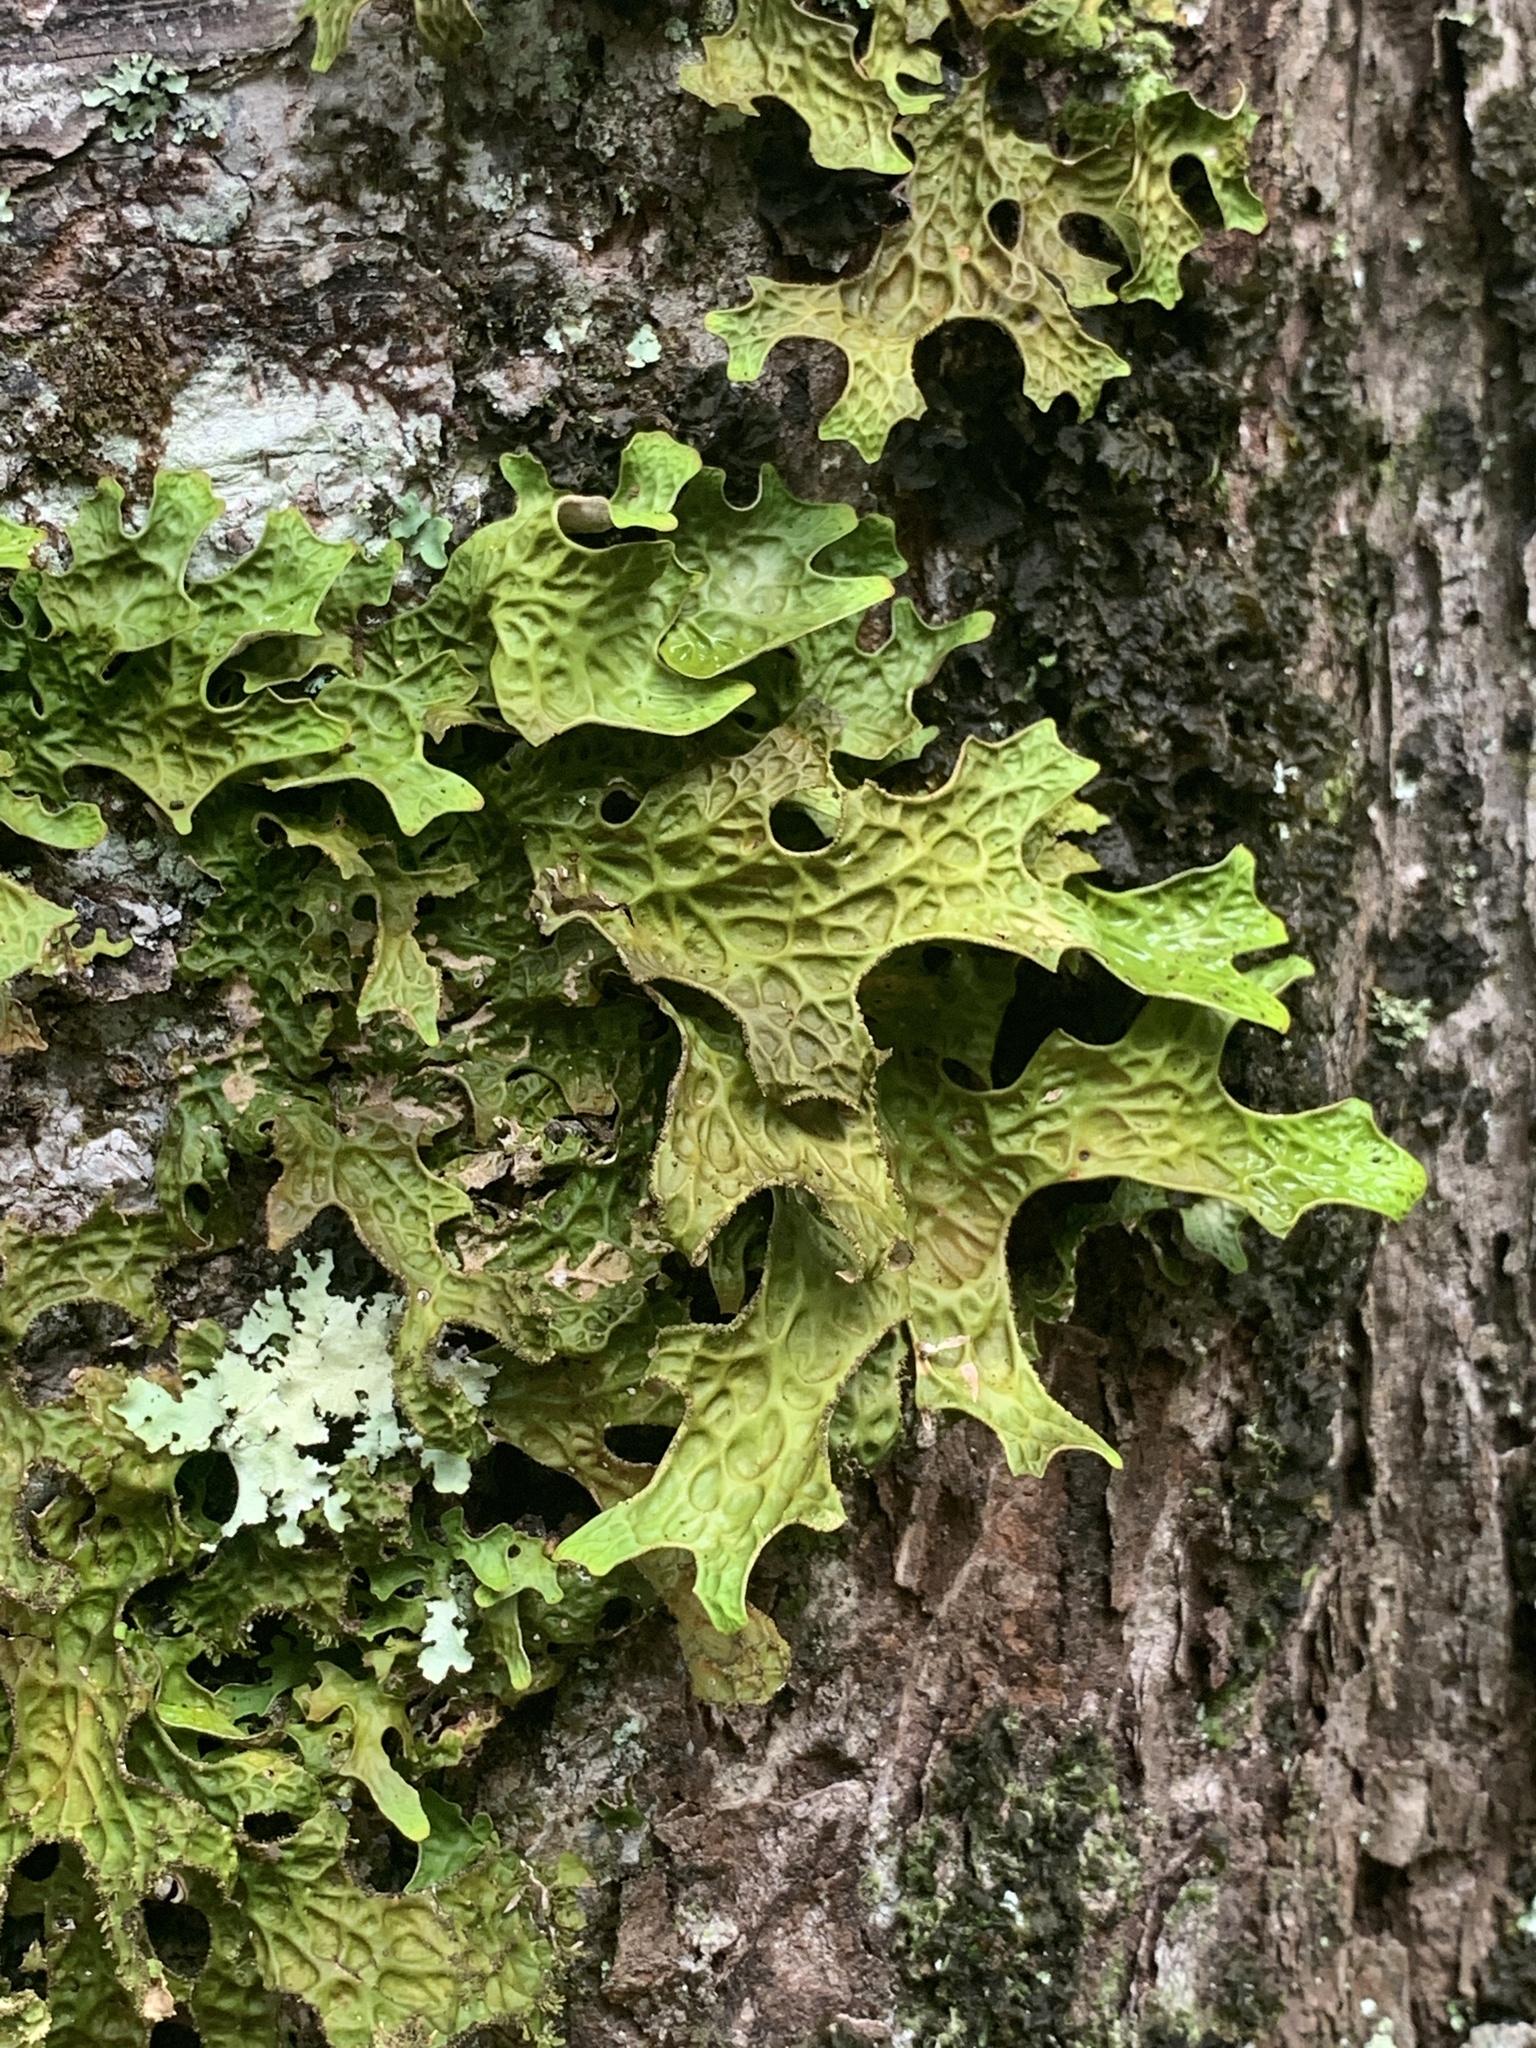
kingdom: Fungi
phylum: Ascomycota
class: Lecanoromycetes
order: Peltigerales
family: Lobariaceae
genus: Lobaria
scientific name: Lobaria pulmonaria
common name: Lungwort
